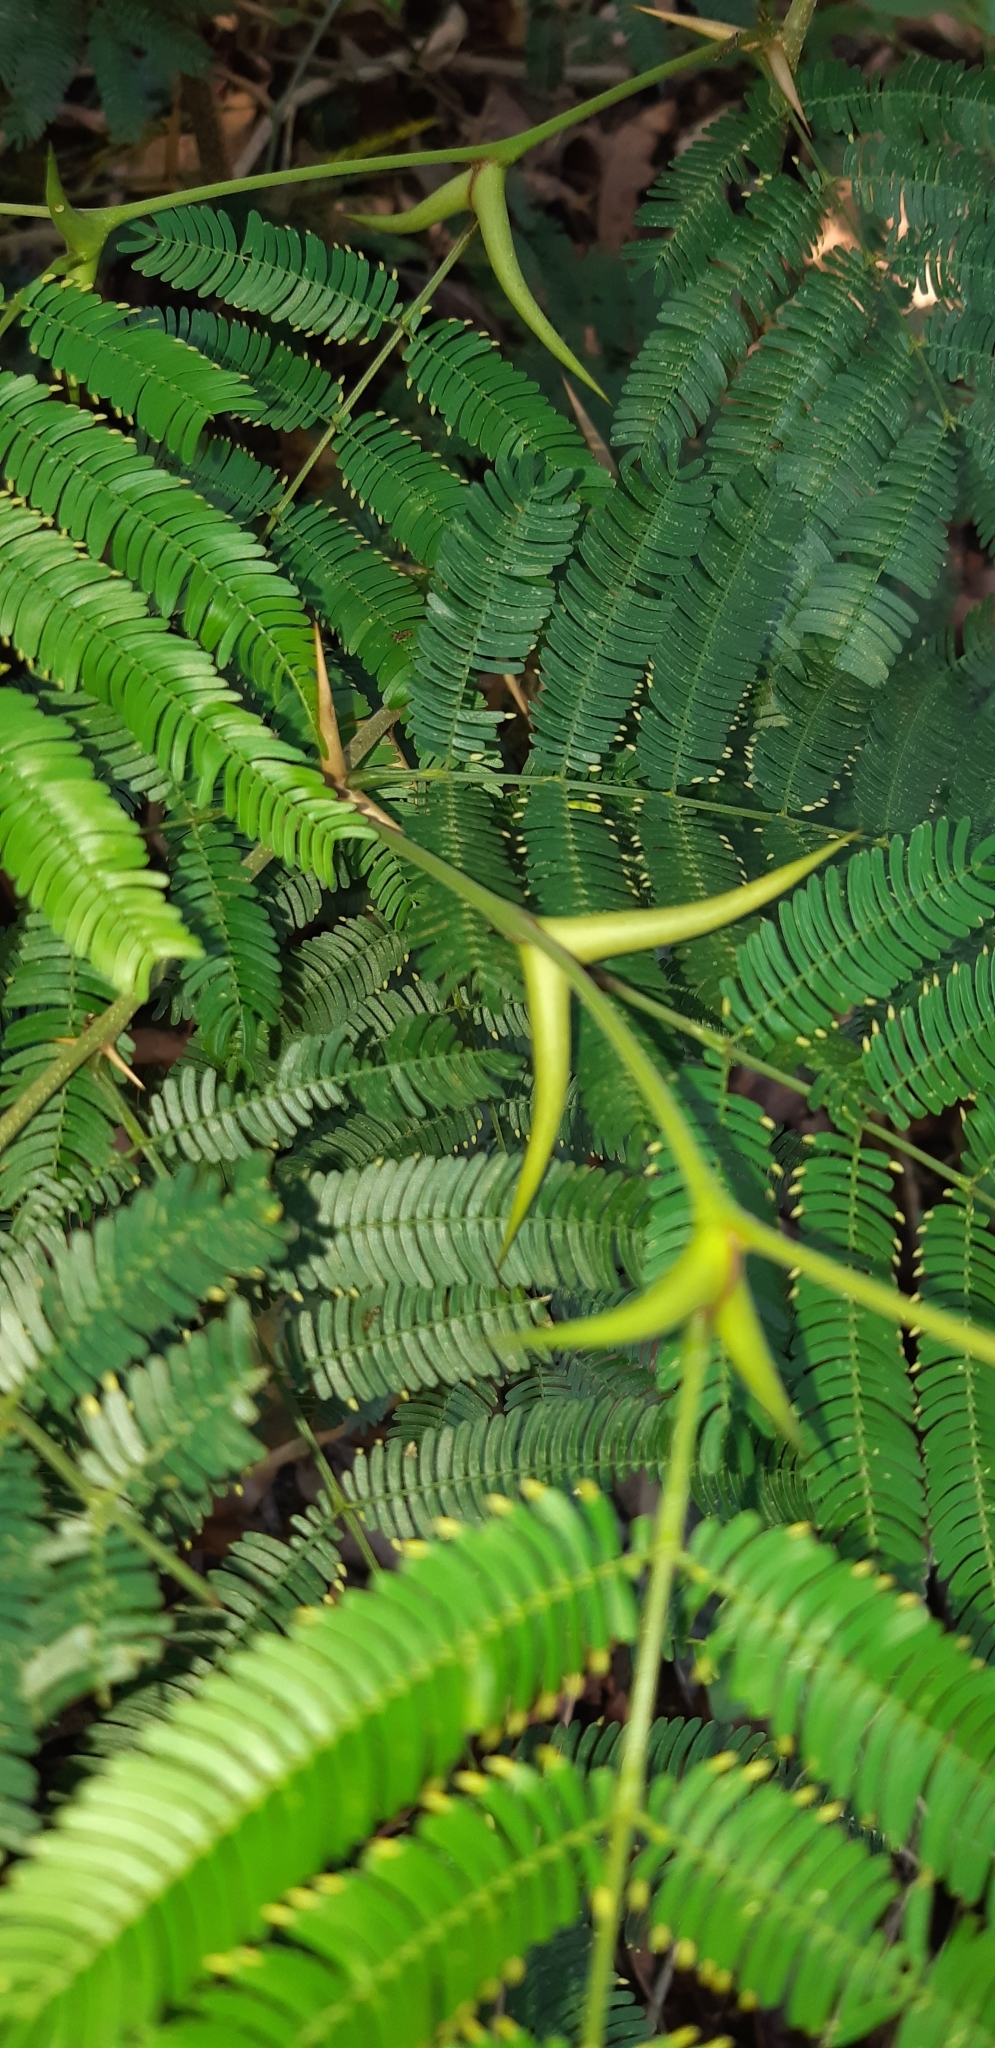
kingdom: Plantae
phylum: Tracheophyta
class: Magnoliopsida
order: Fabales
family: Fabaceae
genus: Vachellia
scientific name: Vachellia cornigera
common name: Bullhorn wattle
